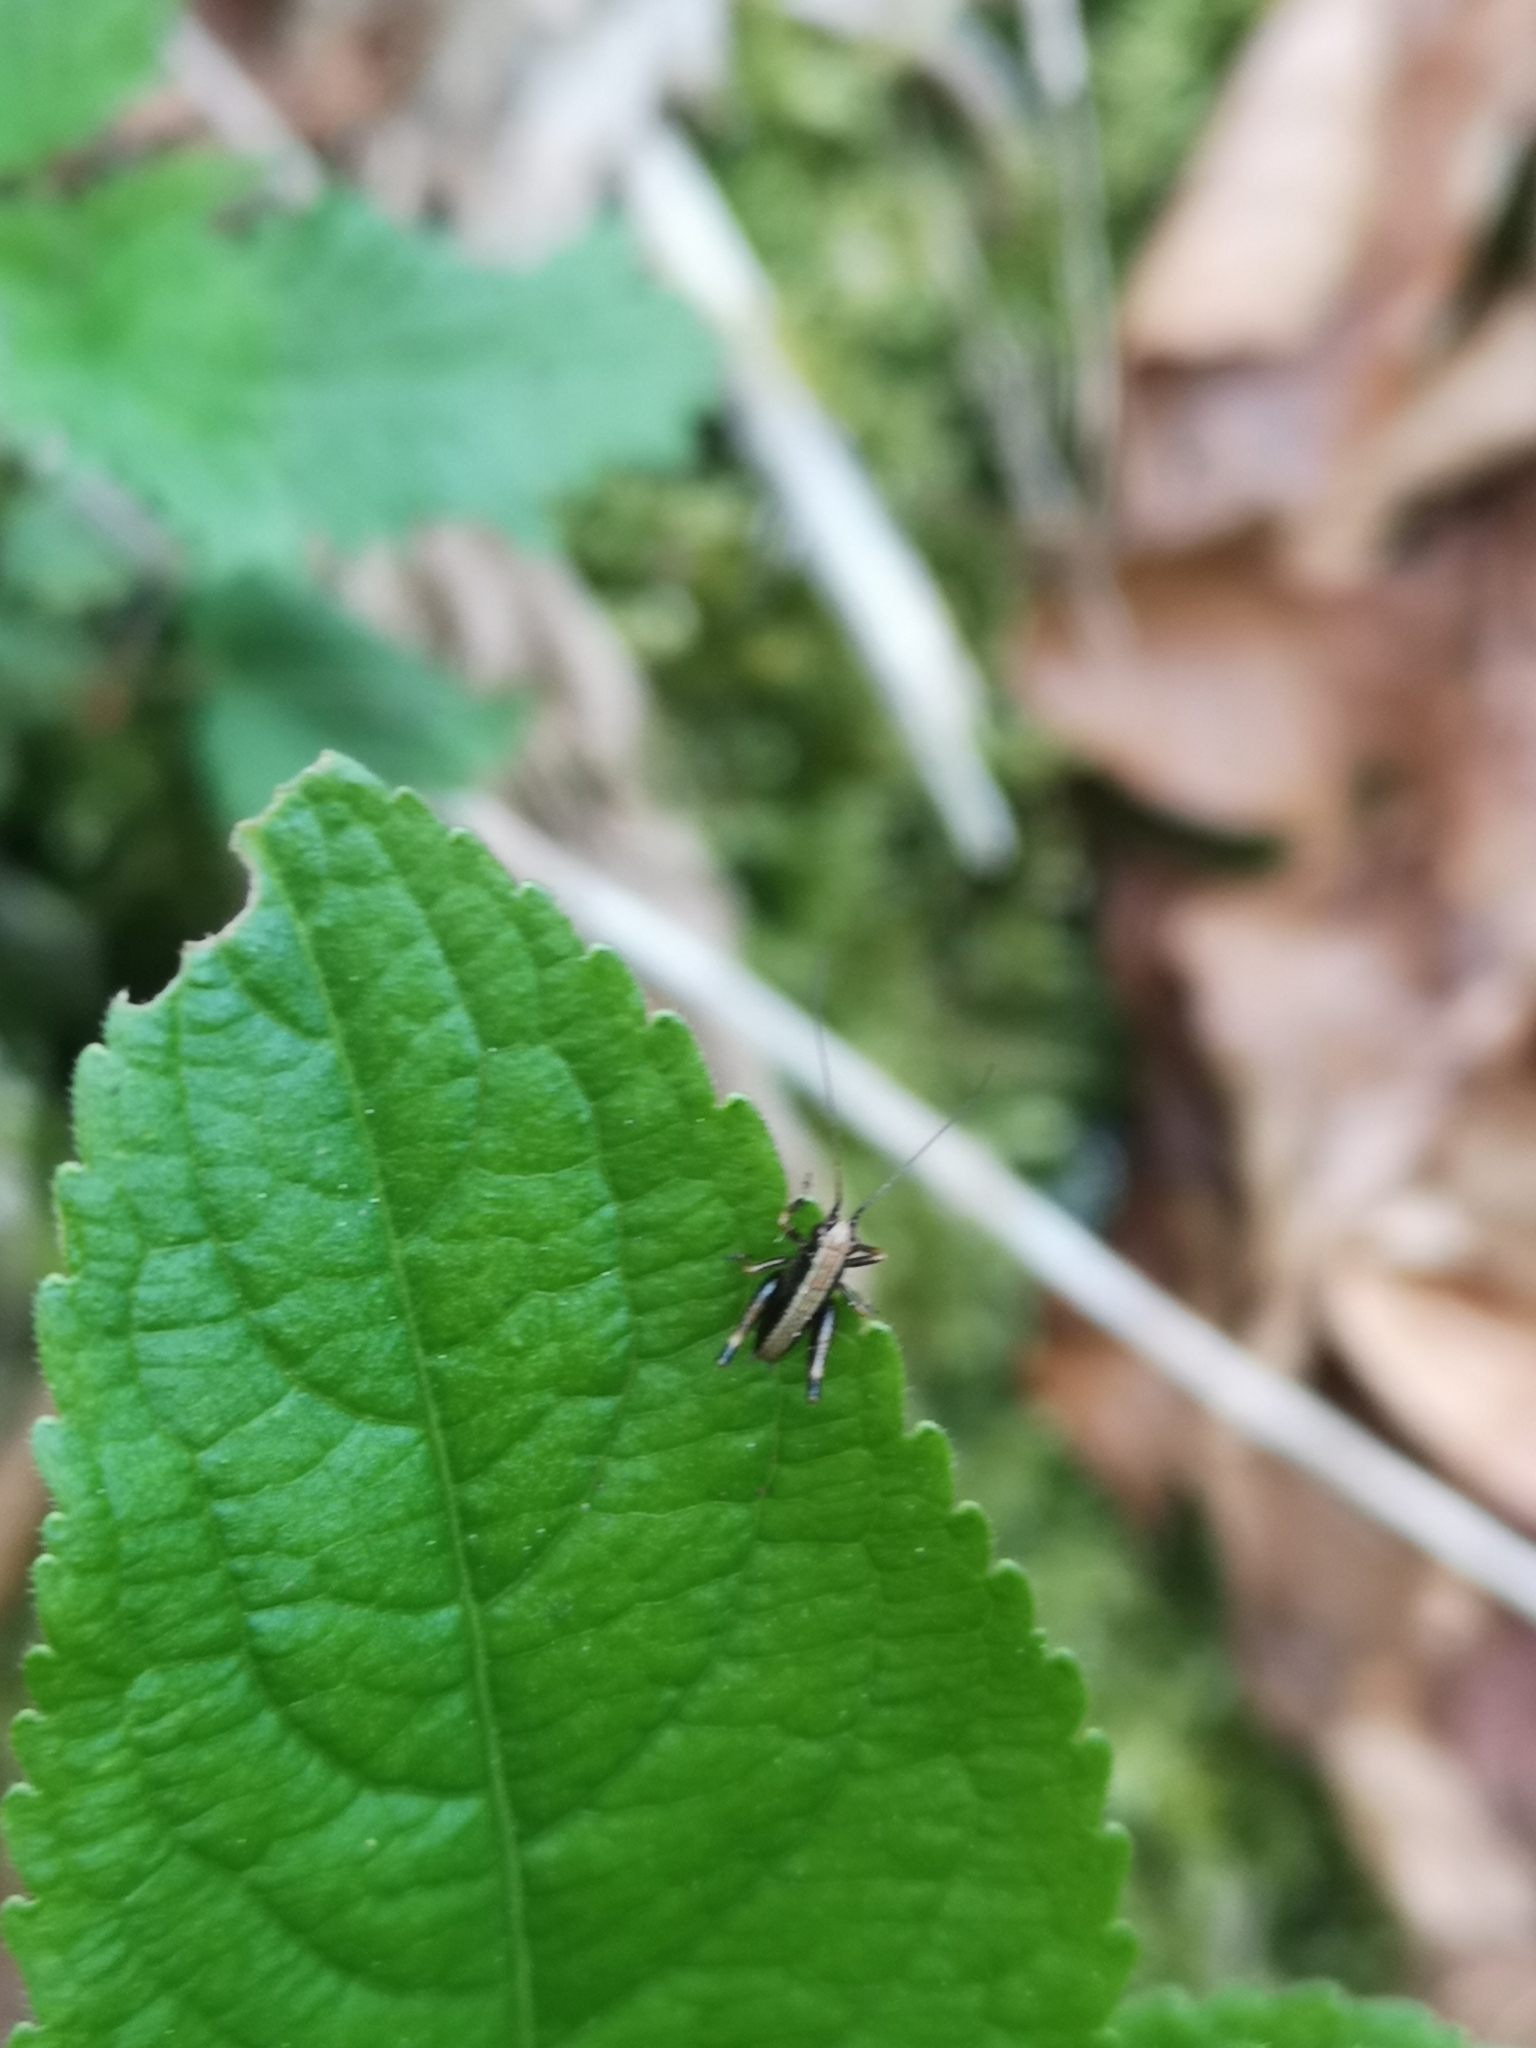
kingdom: Animalia
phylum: Arthropoda
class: Insecta
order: Orthoptera
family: Tettigoniidae
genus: Pholidoptera
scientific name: Pholidoptera griseoaptera
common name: Dark bush-cricket
